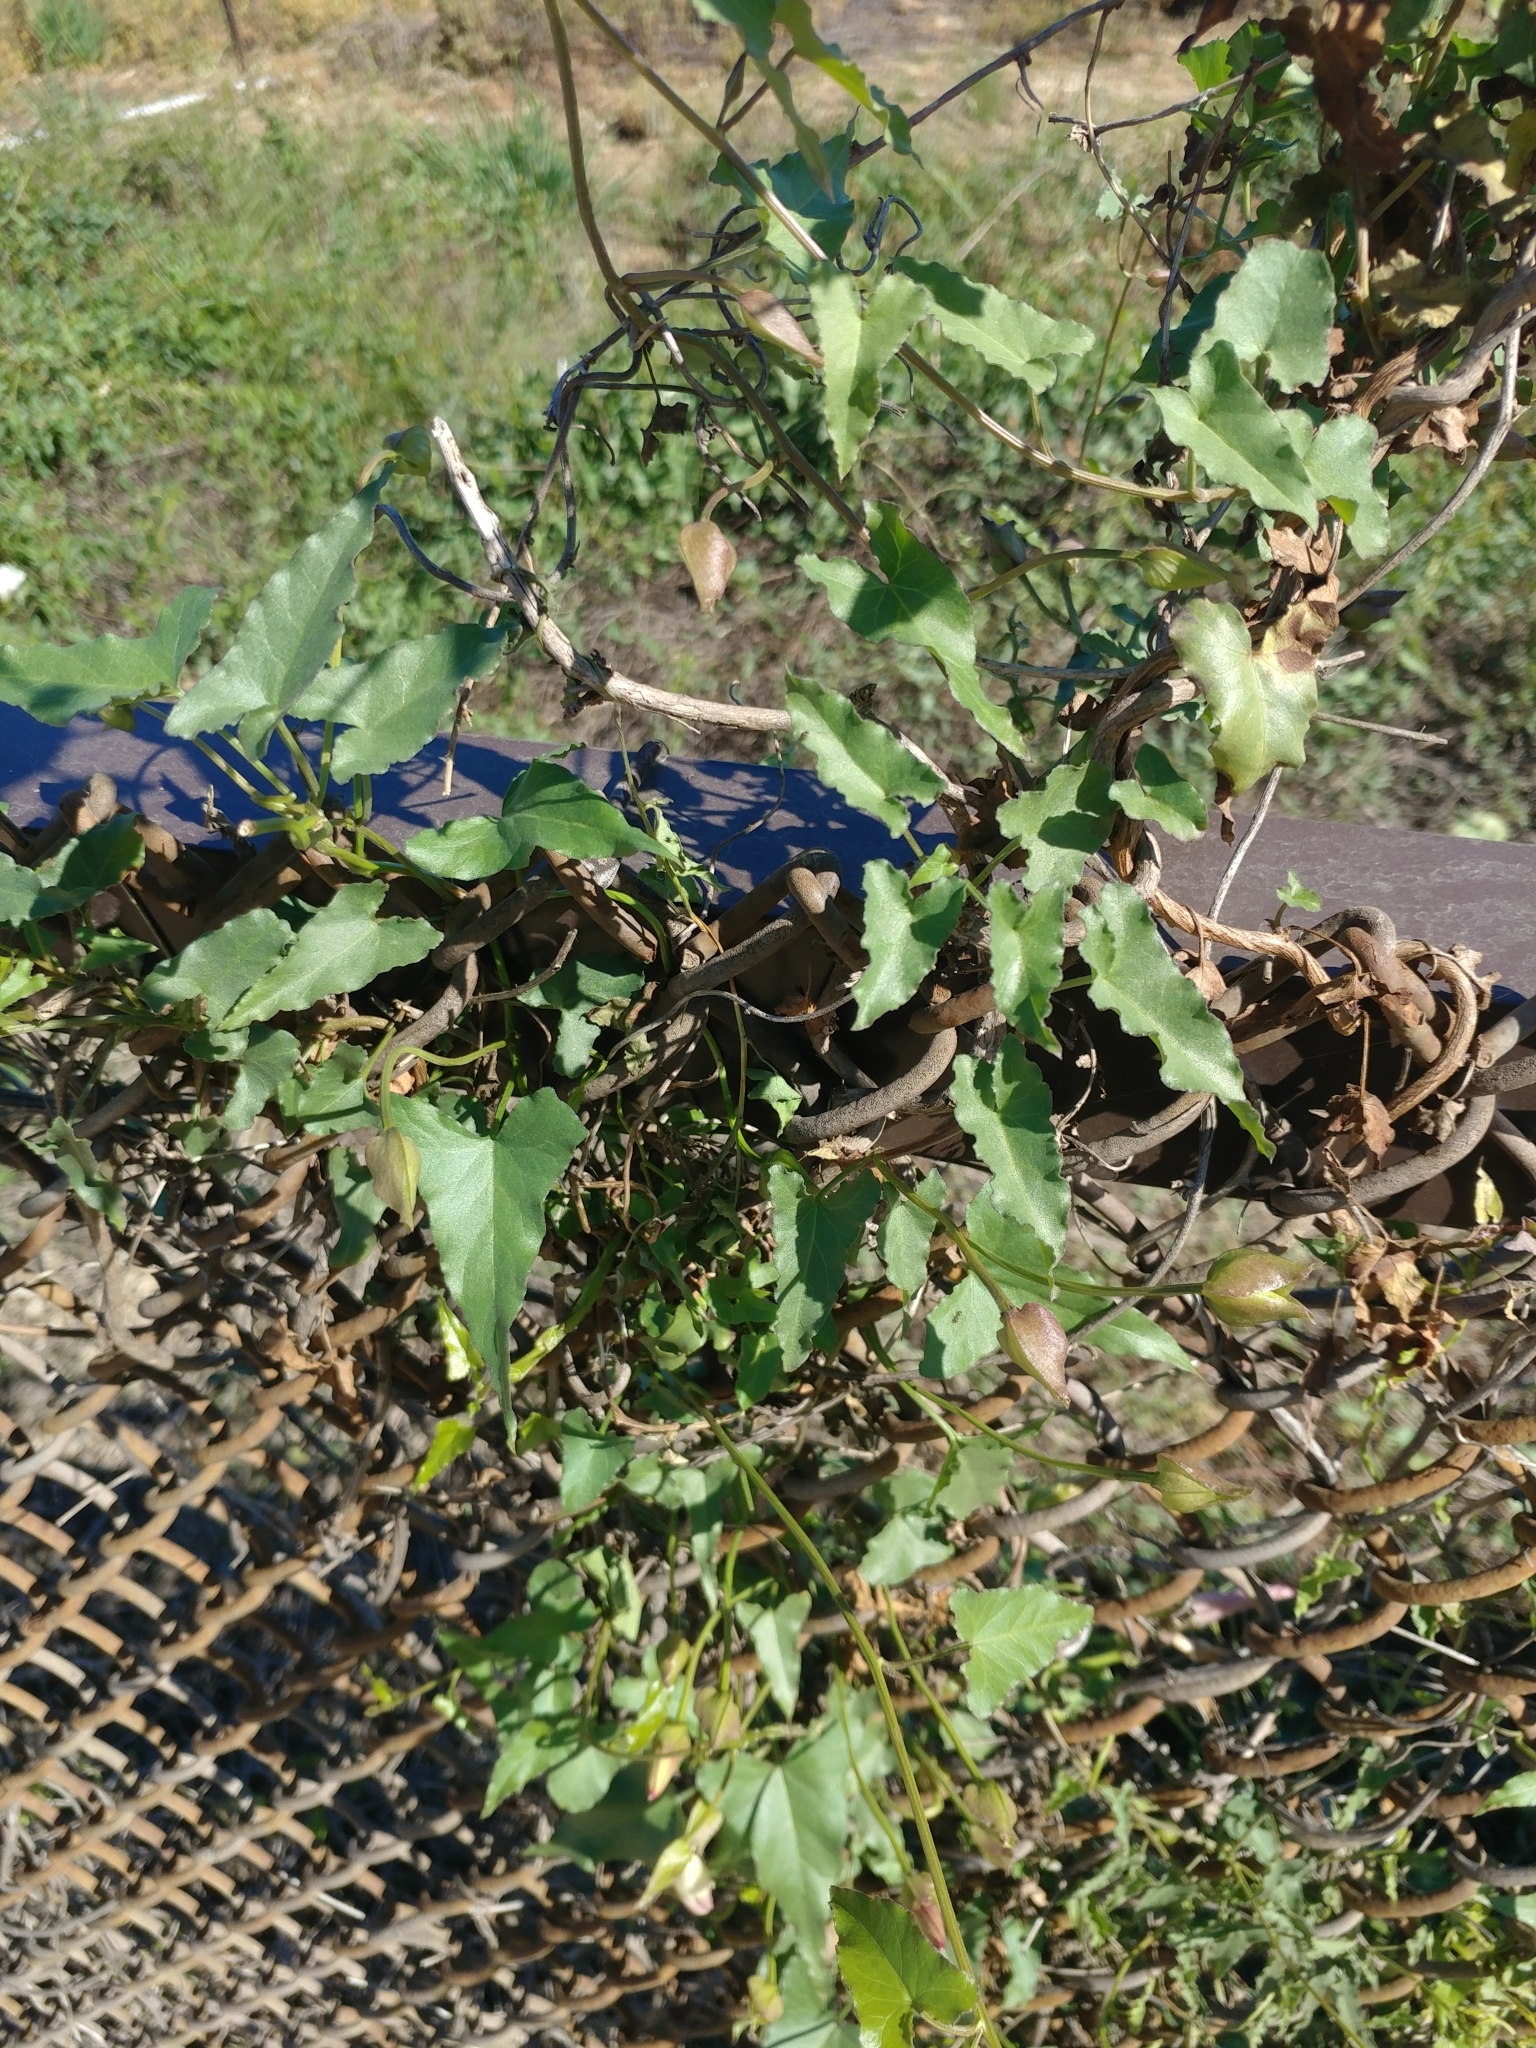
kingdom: Plantae
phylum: Tracheophyta
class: Magnoliopsida
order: Solanales
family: Convolvulaceae
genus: Calystegia
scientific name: Calystegia macrostegia
